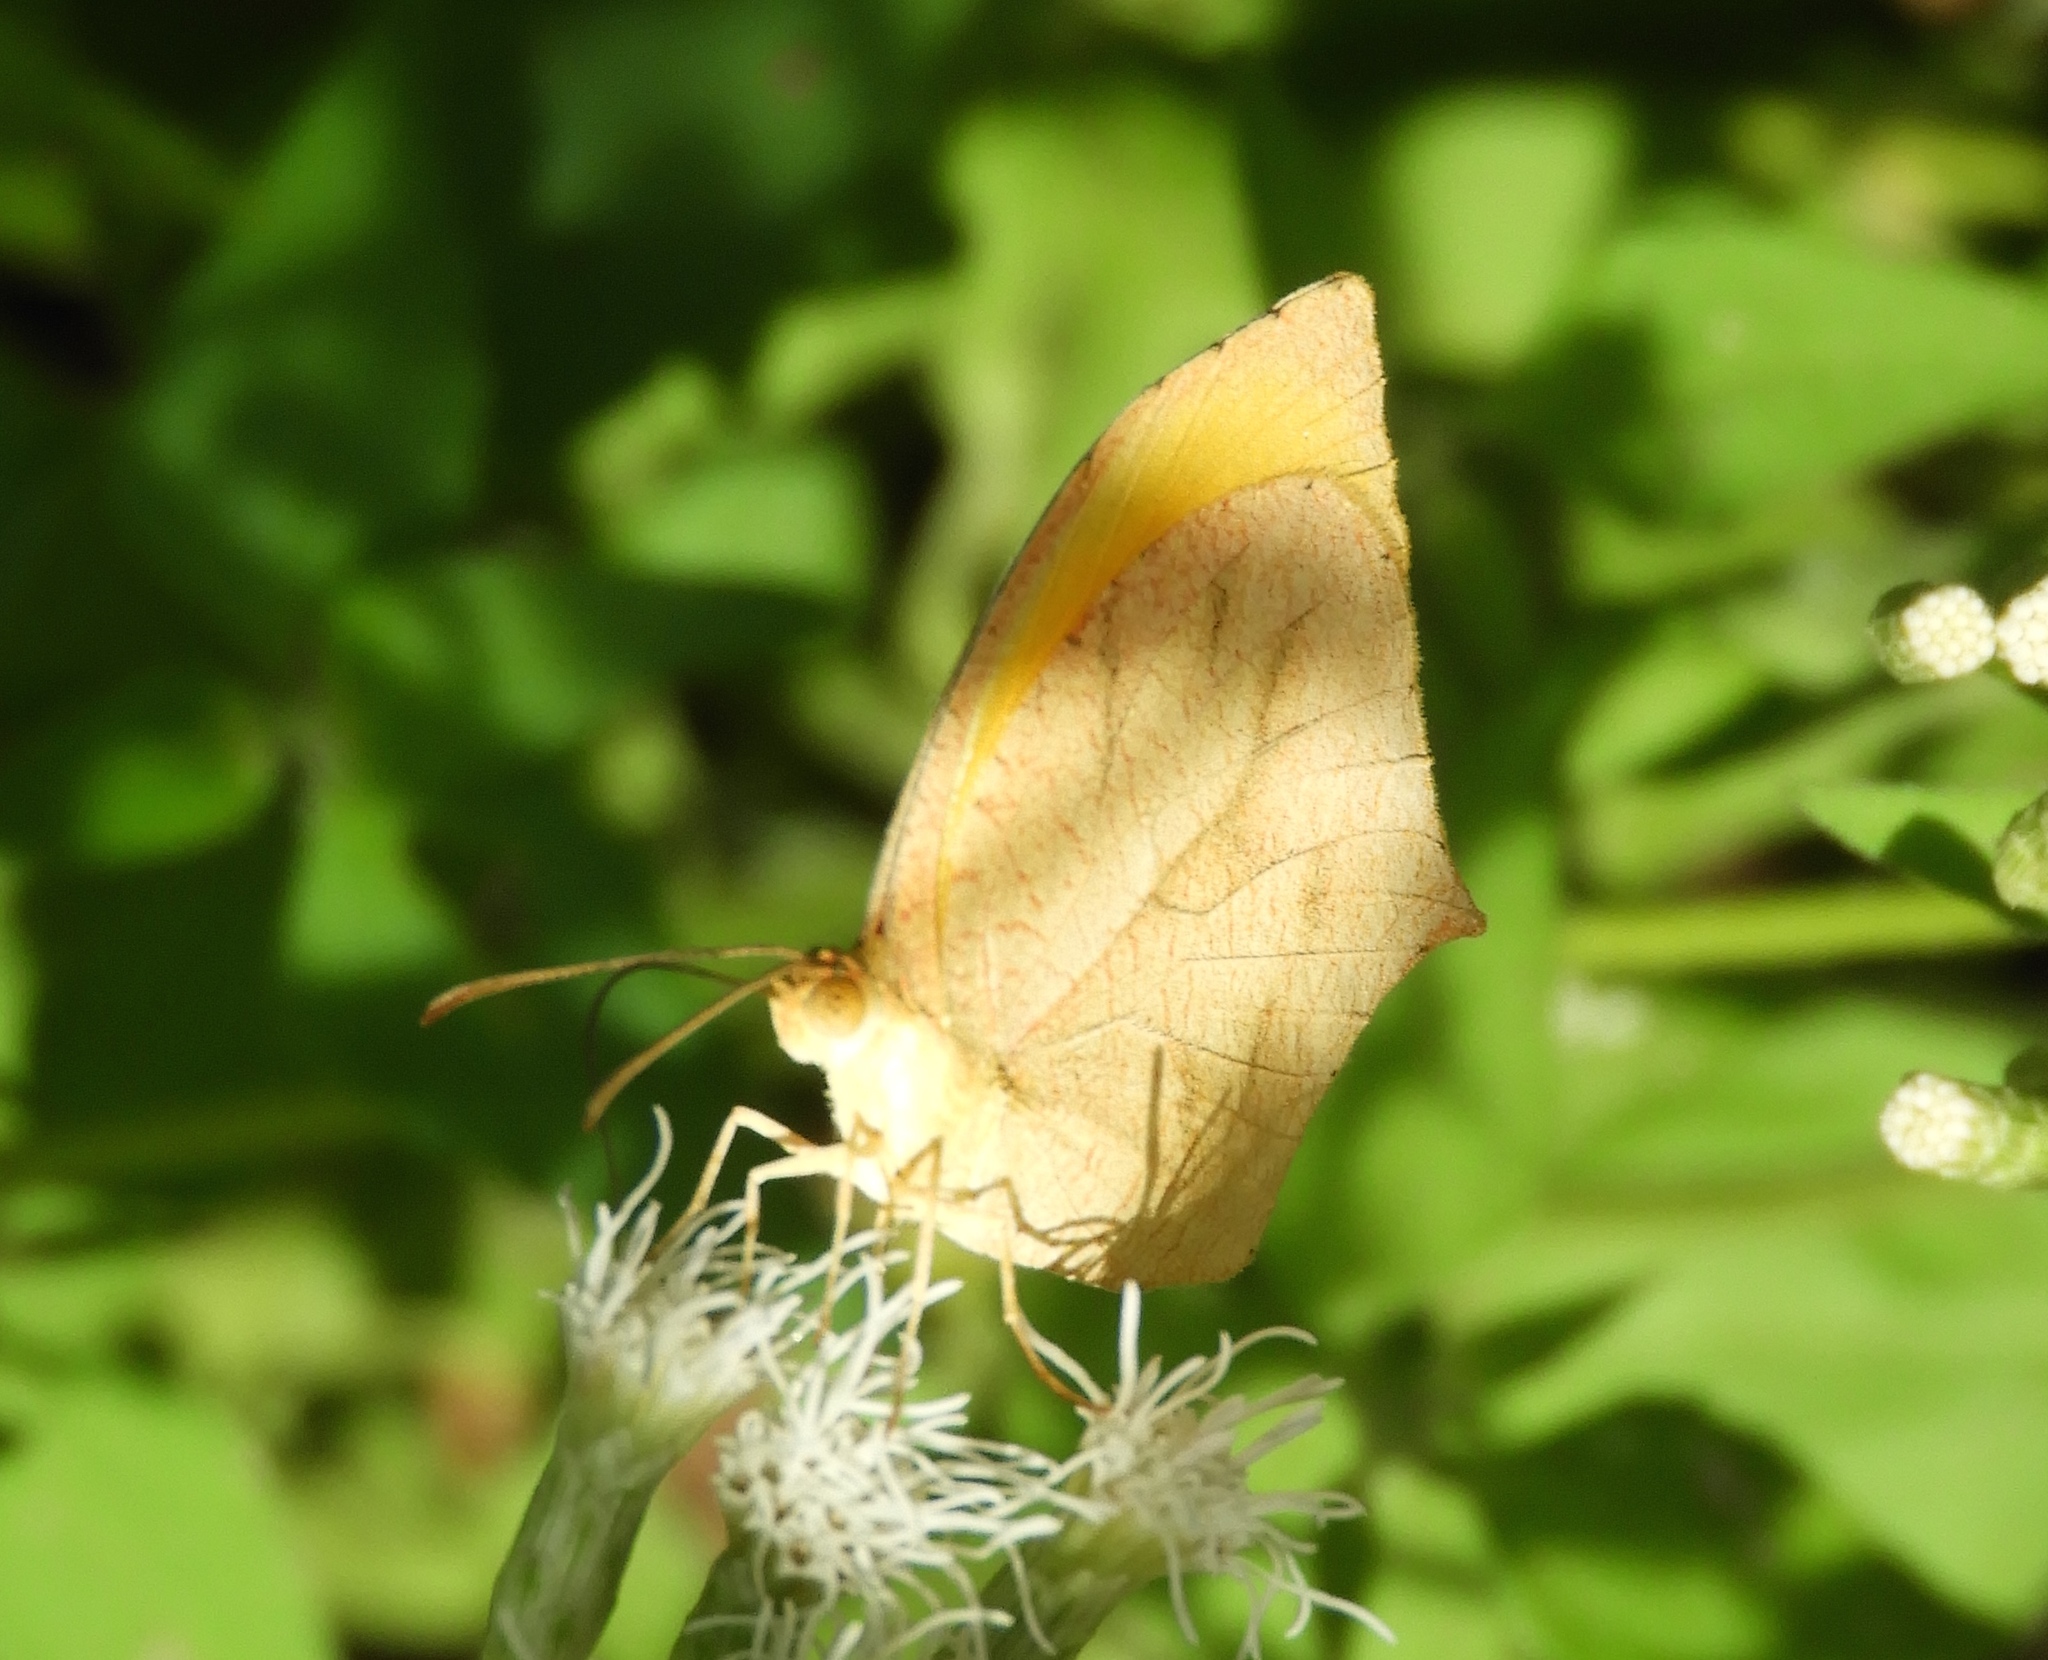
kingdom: Animalia
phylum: Arthropoda
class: Insecta
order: Lepidoptera
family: Pieridae
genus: Pyrisitia
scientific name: Pyrisitia proterpia
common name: Tailed orange
